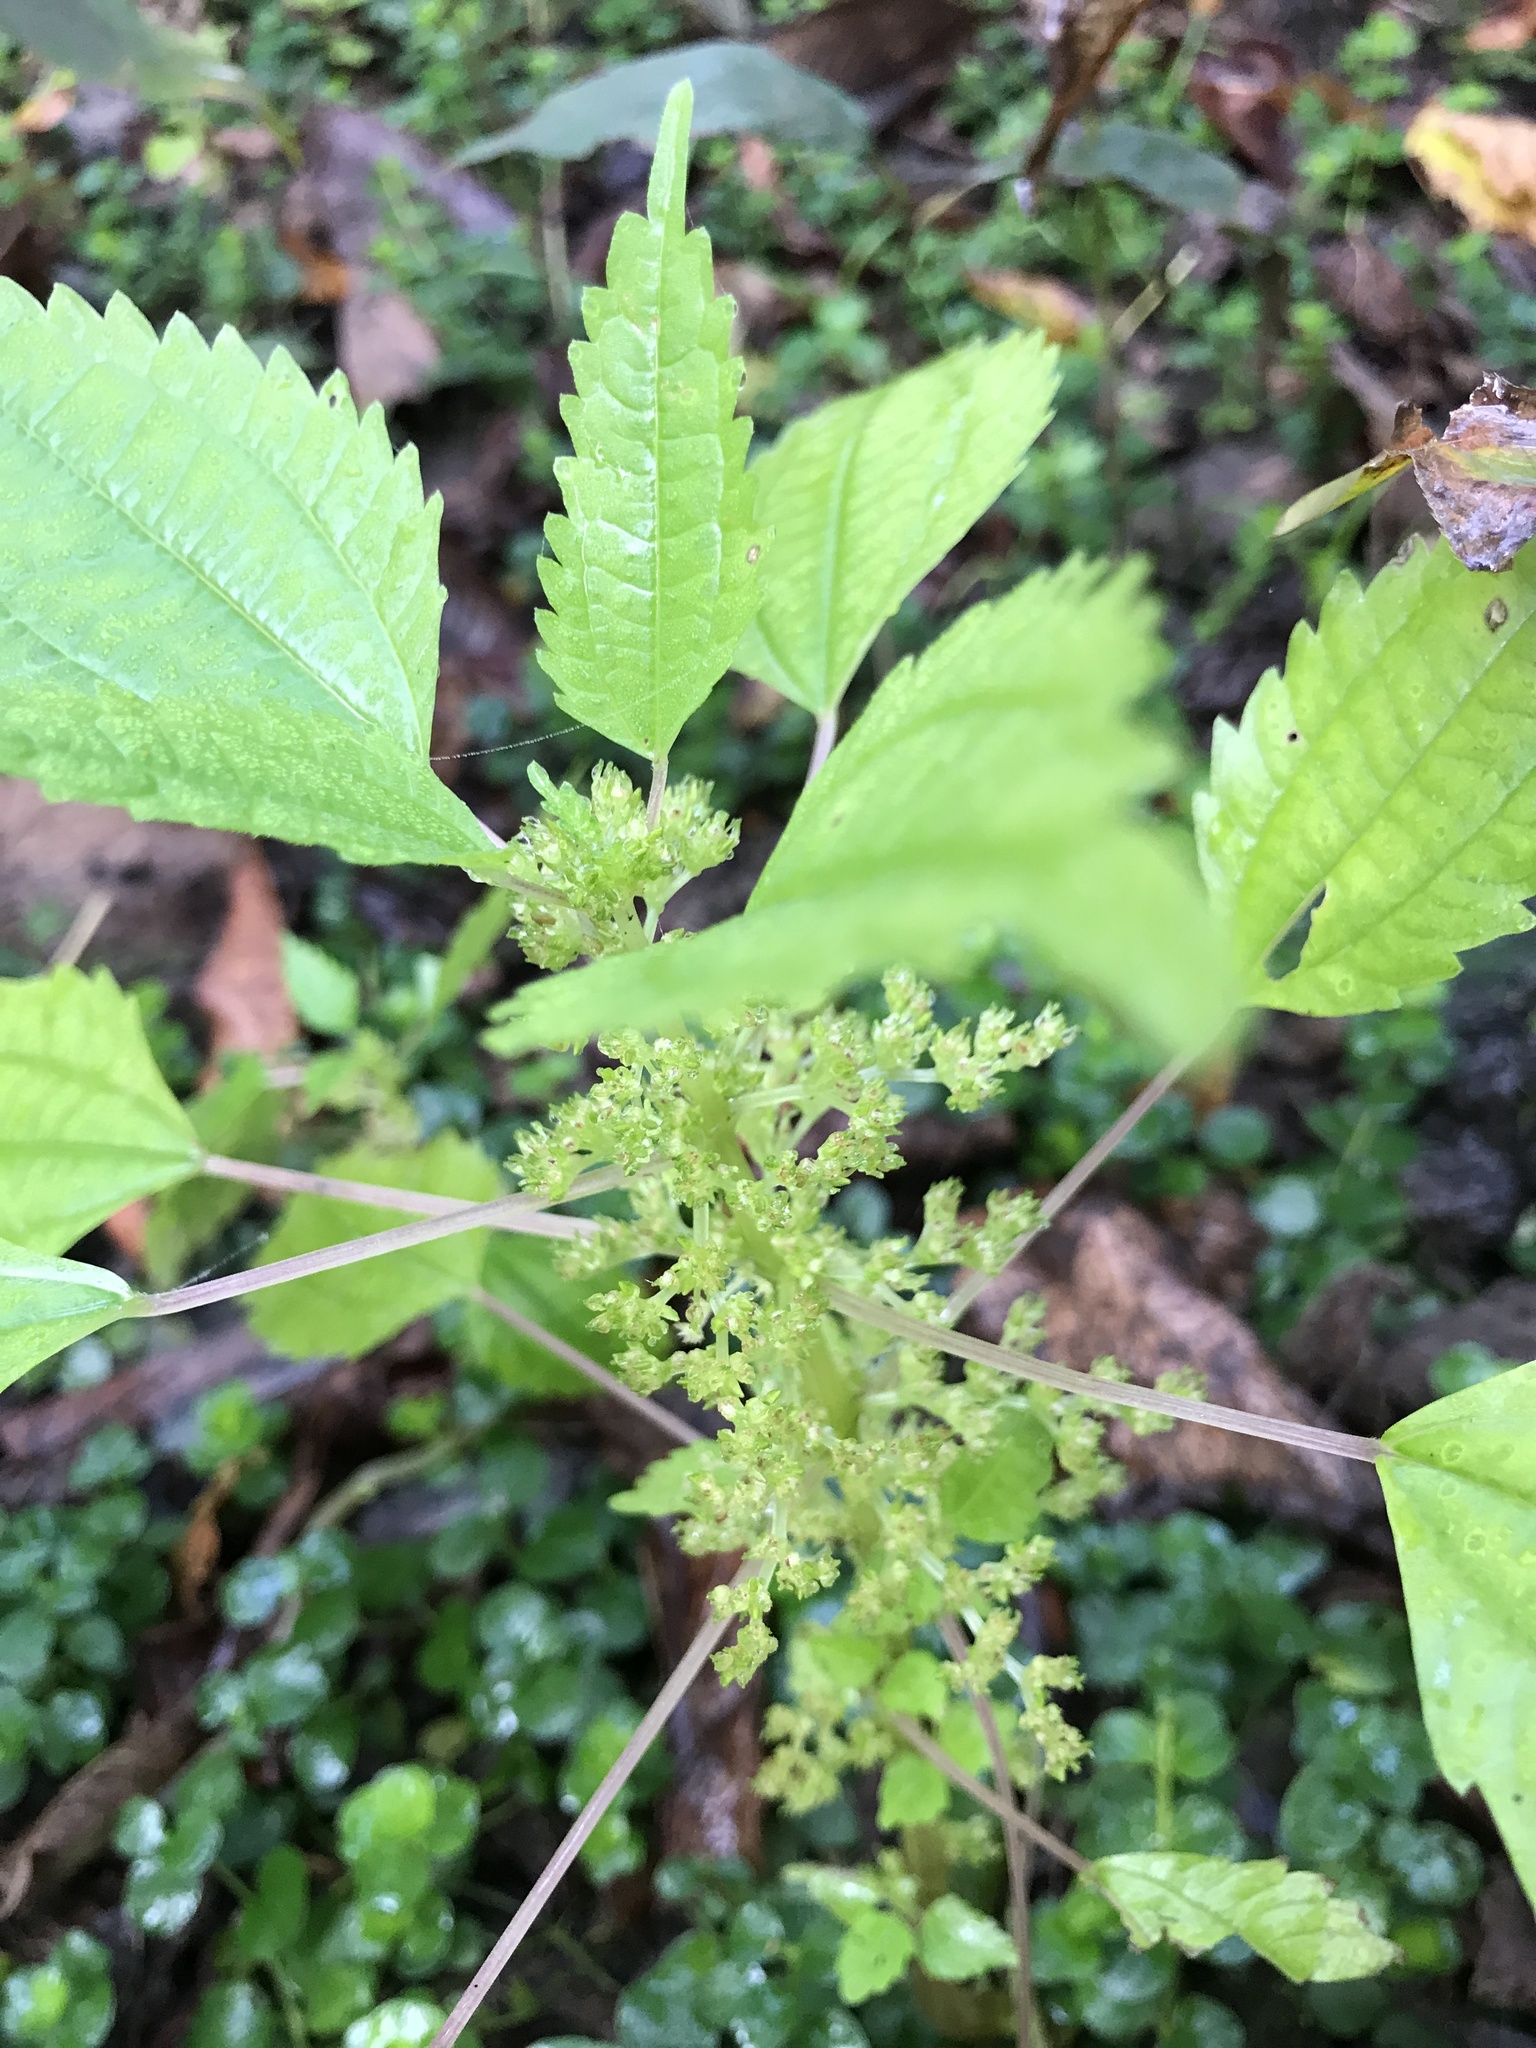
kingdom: Plantae
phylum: Tracheophyta
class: Magnoliopsida
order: Rosales
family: Urticaceae
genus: Pilea
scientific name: Pilea pumila
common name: Clearweed
